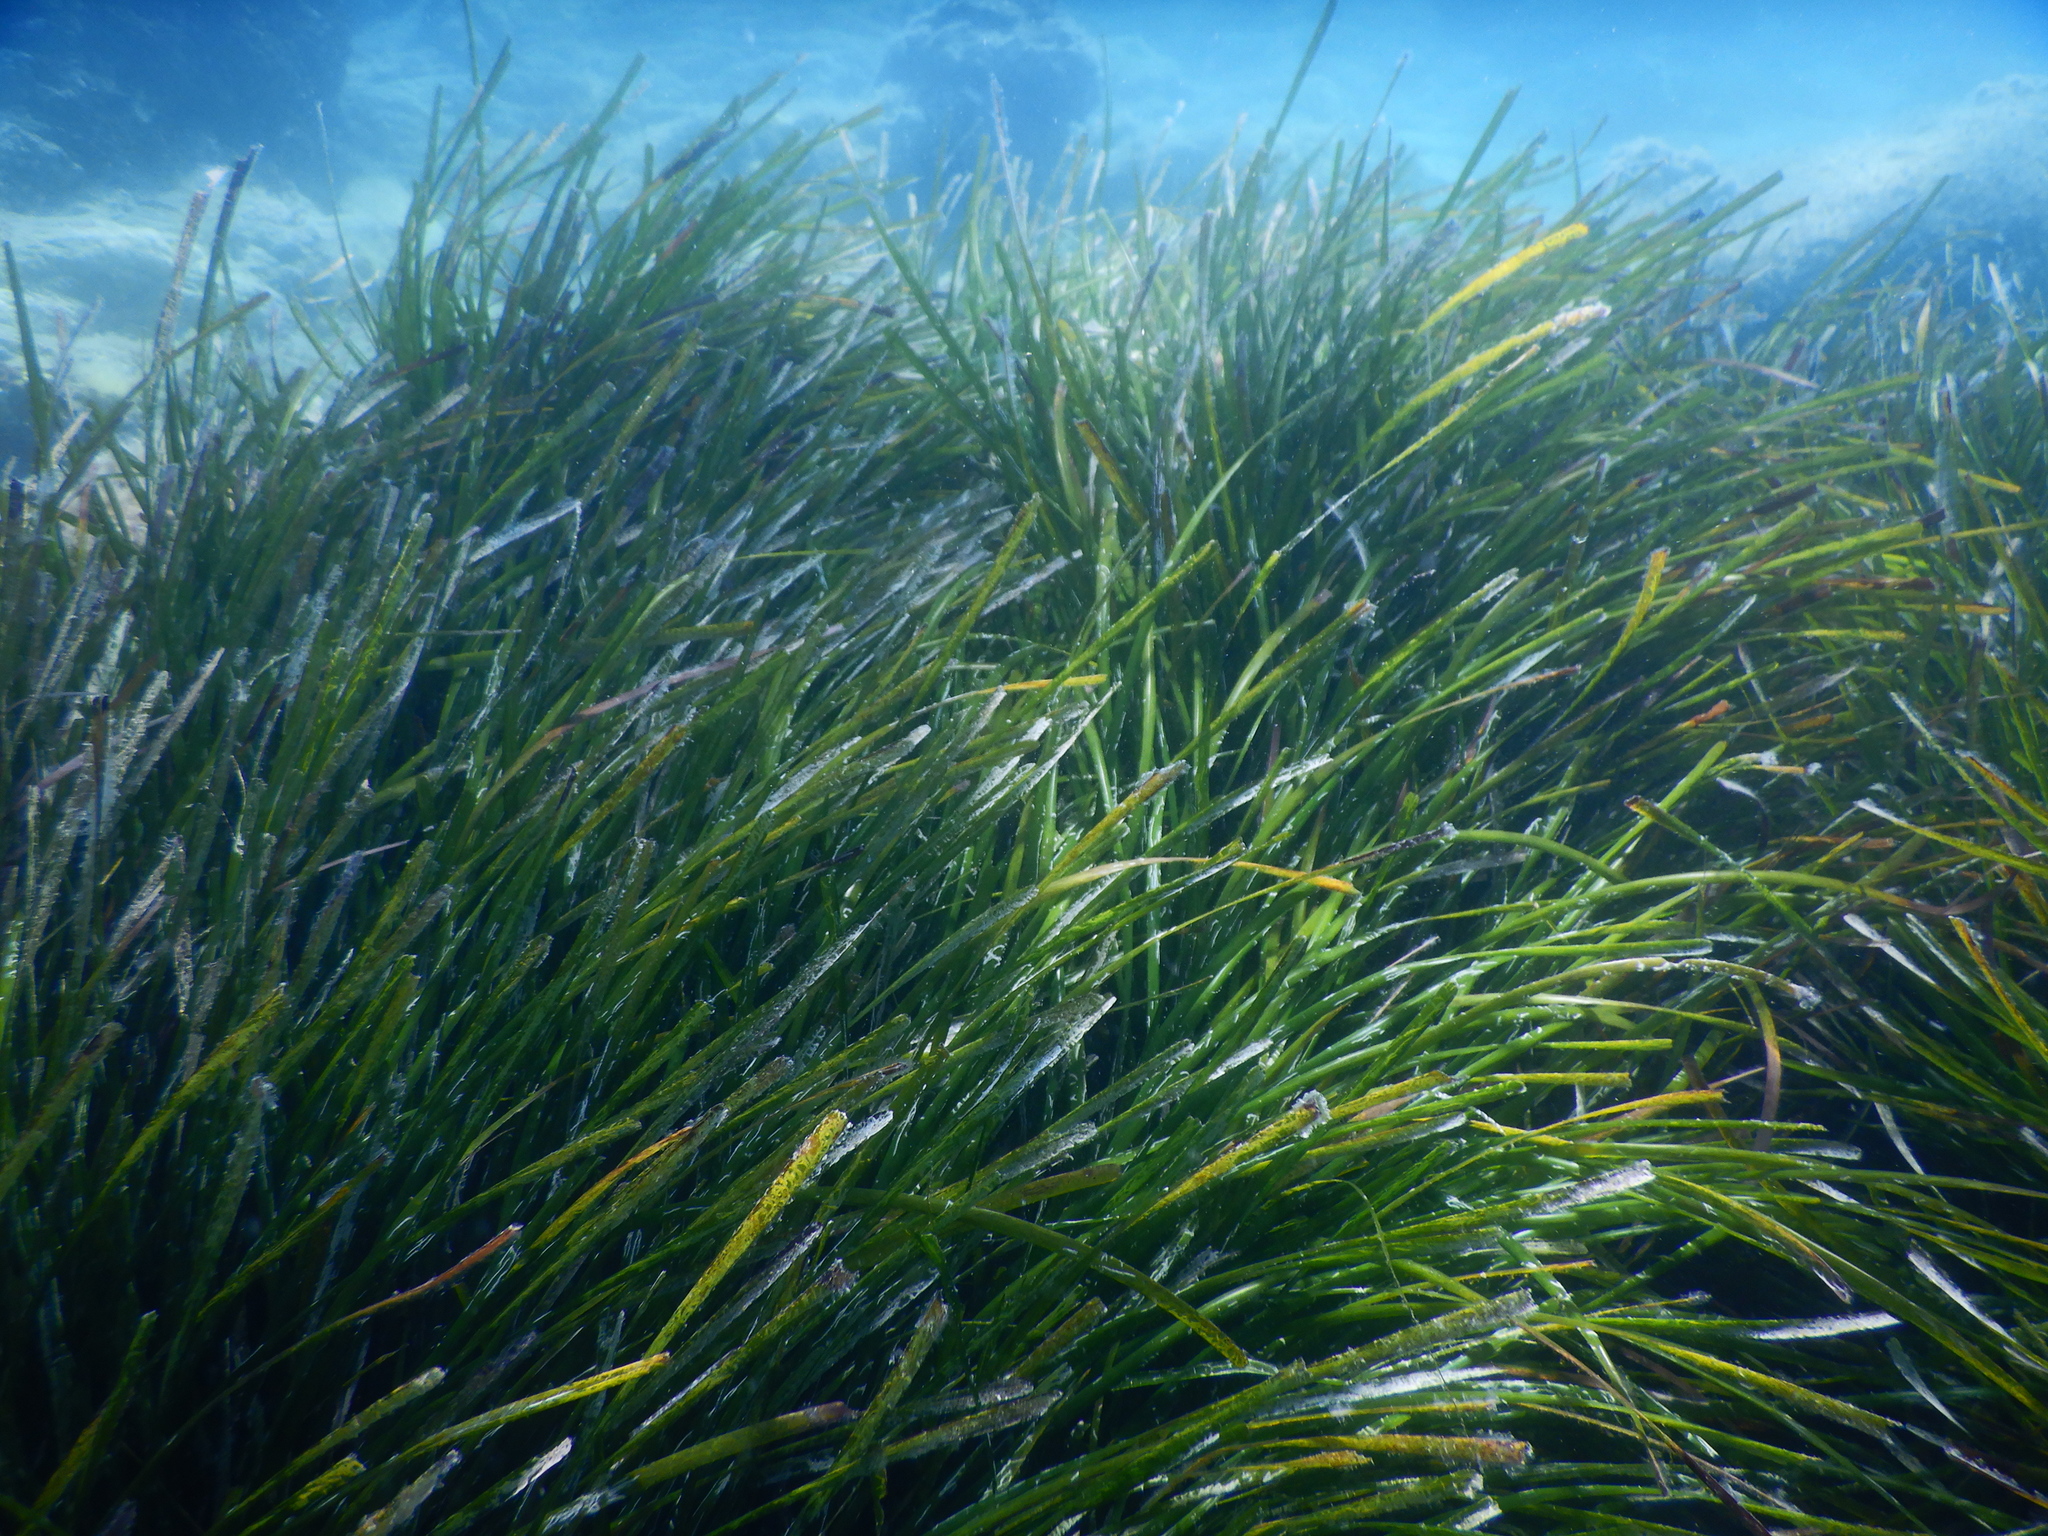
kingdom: Plantae
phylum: Tracheophyta
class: Liliopsida
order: Alismatales
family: Posidoniaceae
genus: Posidonia
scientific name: Posidonia oceanica
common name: Mediterranean tapeweed
